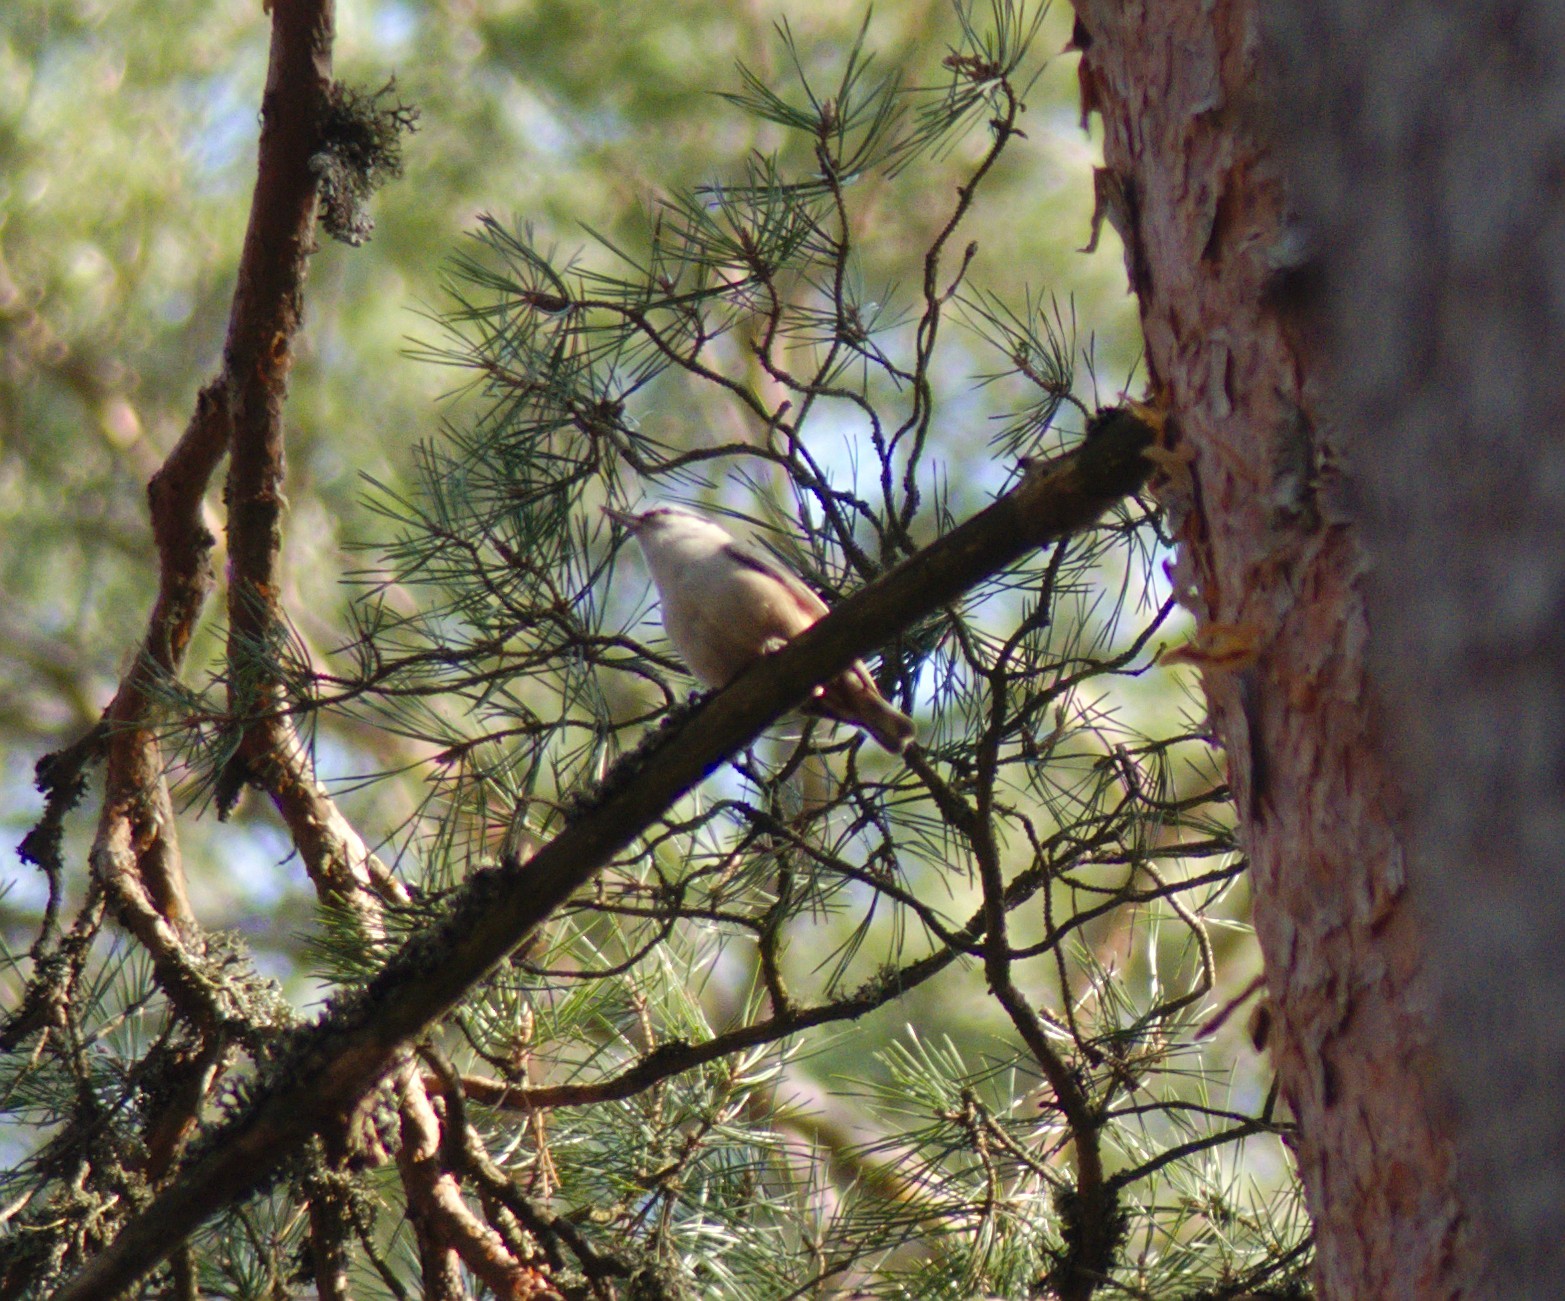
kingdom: Animalia
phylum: Chordata
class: Aves
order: Passeriformes
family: Sittidae
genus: Sitta
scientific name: Sitta europaea
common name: Eurasian nuthatch
